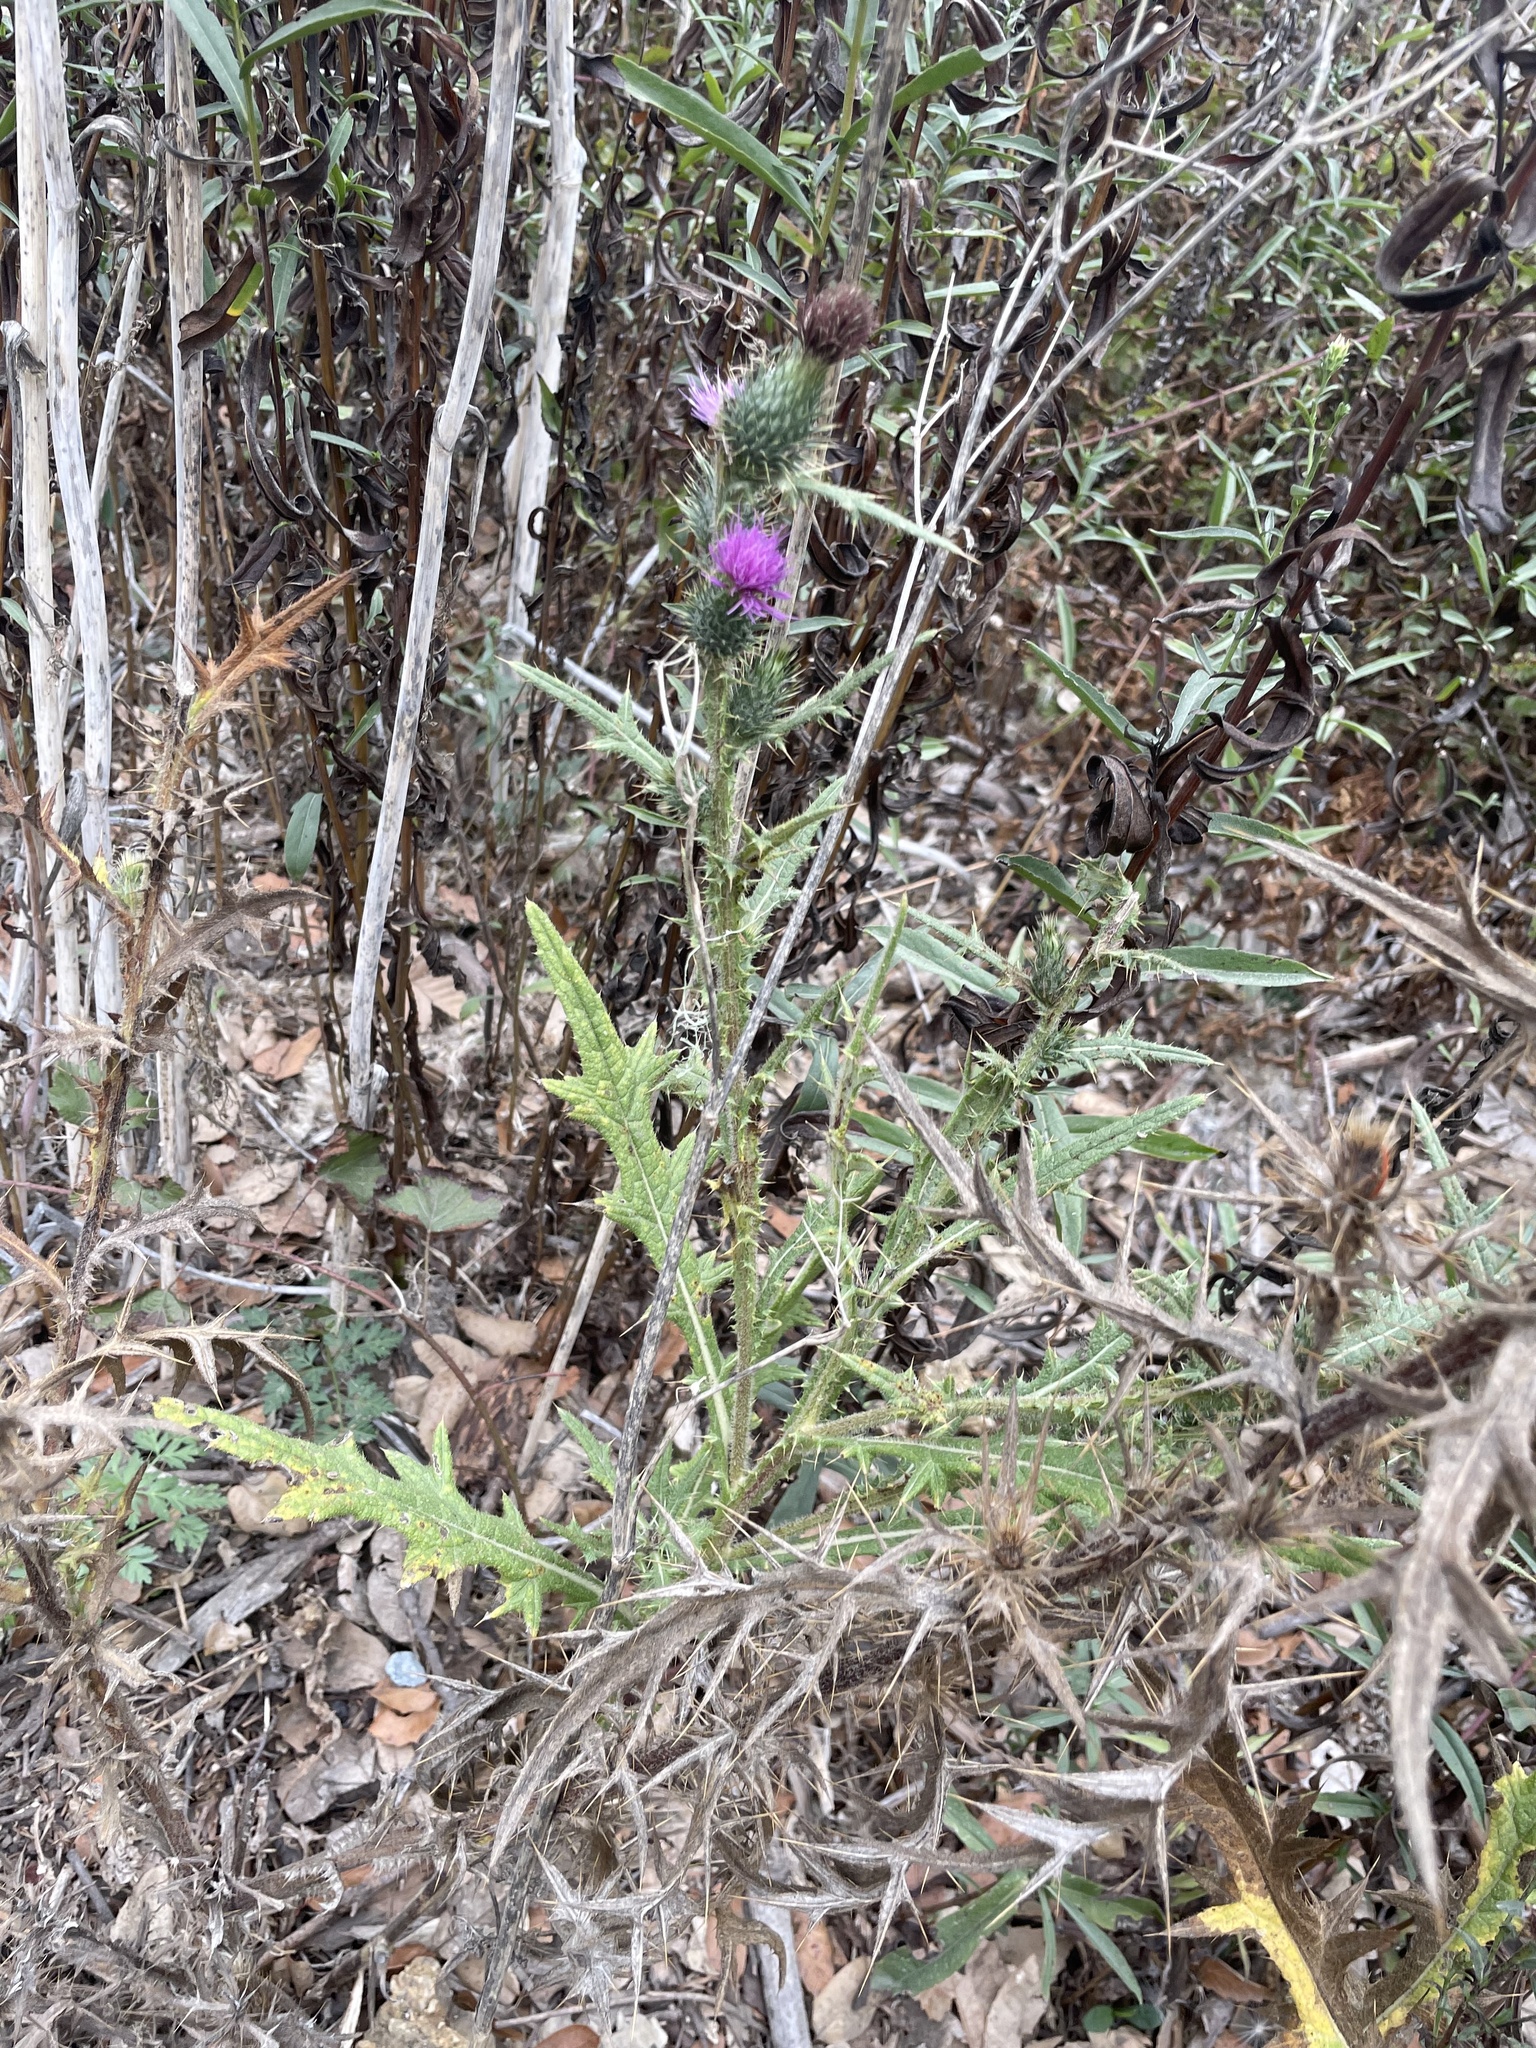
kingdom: Plantae
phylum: Tracheophyta
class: Magnoliopsida
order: Asterales
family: Asteraceae
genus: Cirsium
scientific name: Cirsium vulgare
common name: Bull thistle
